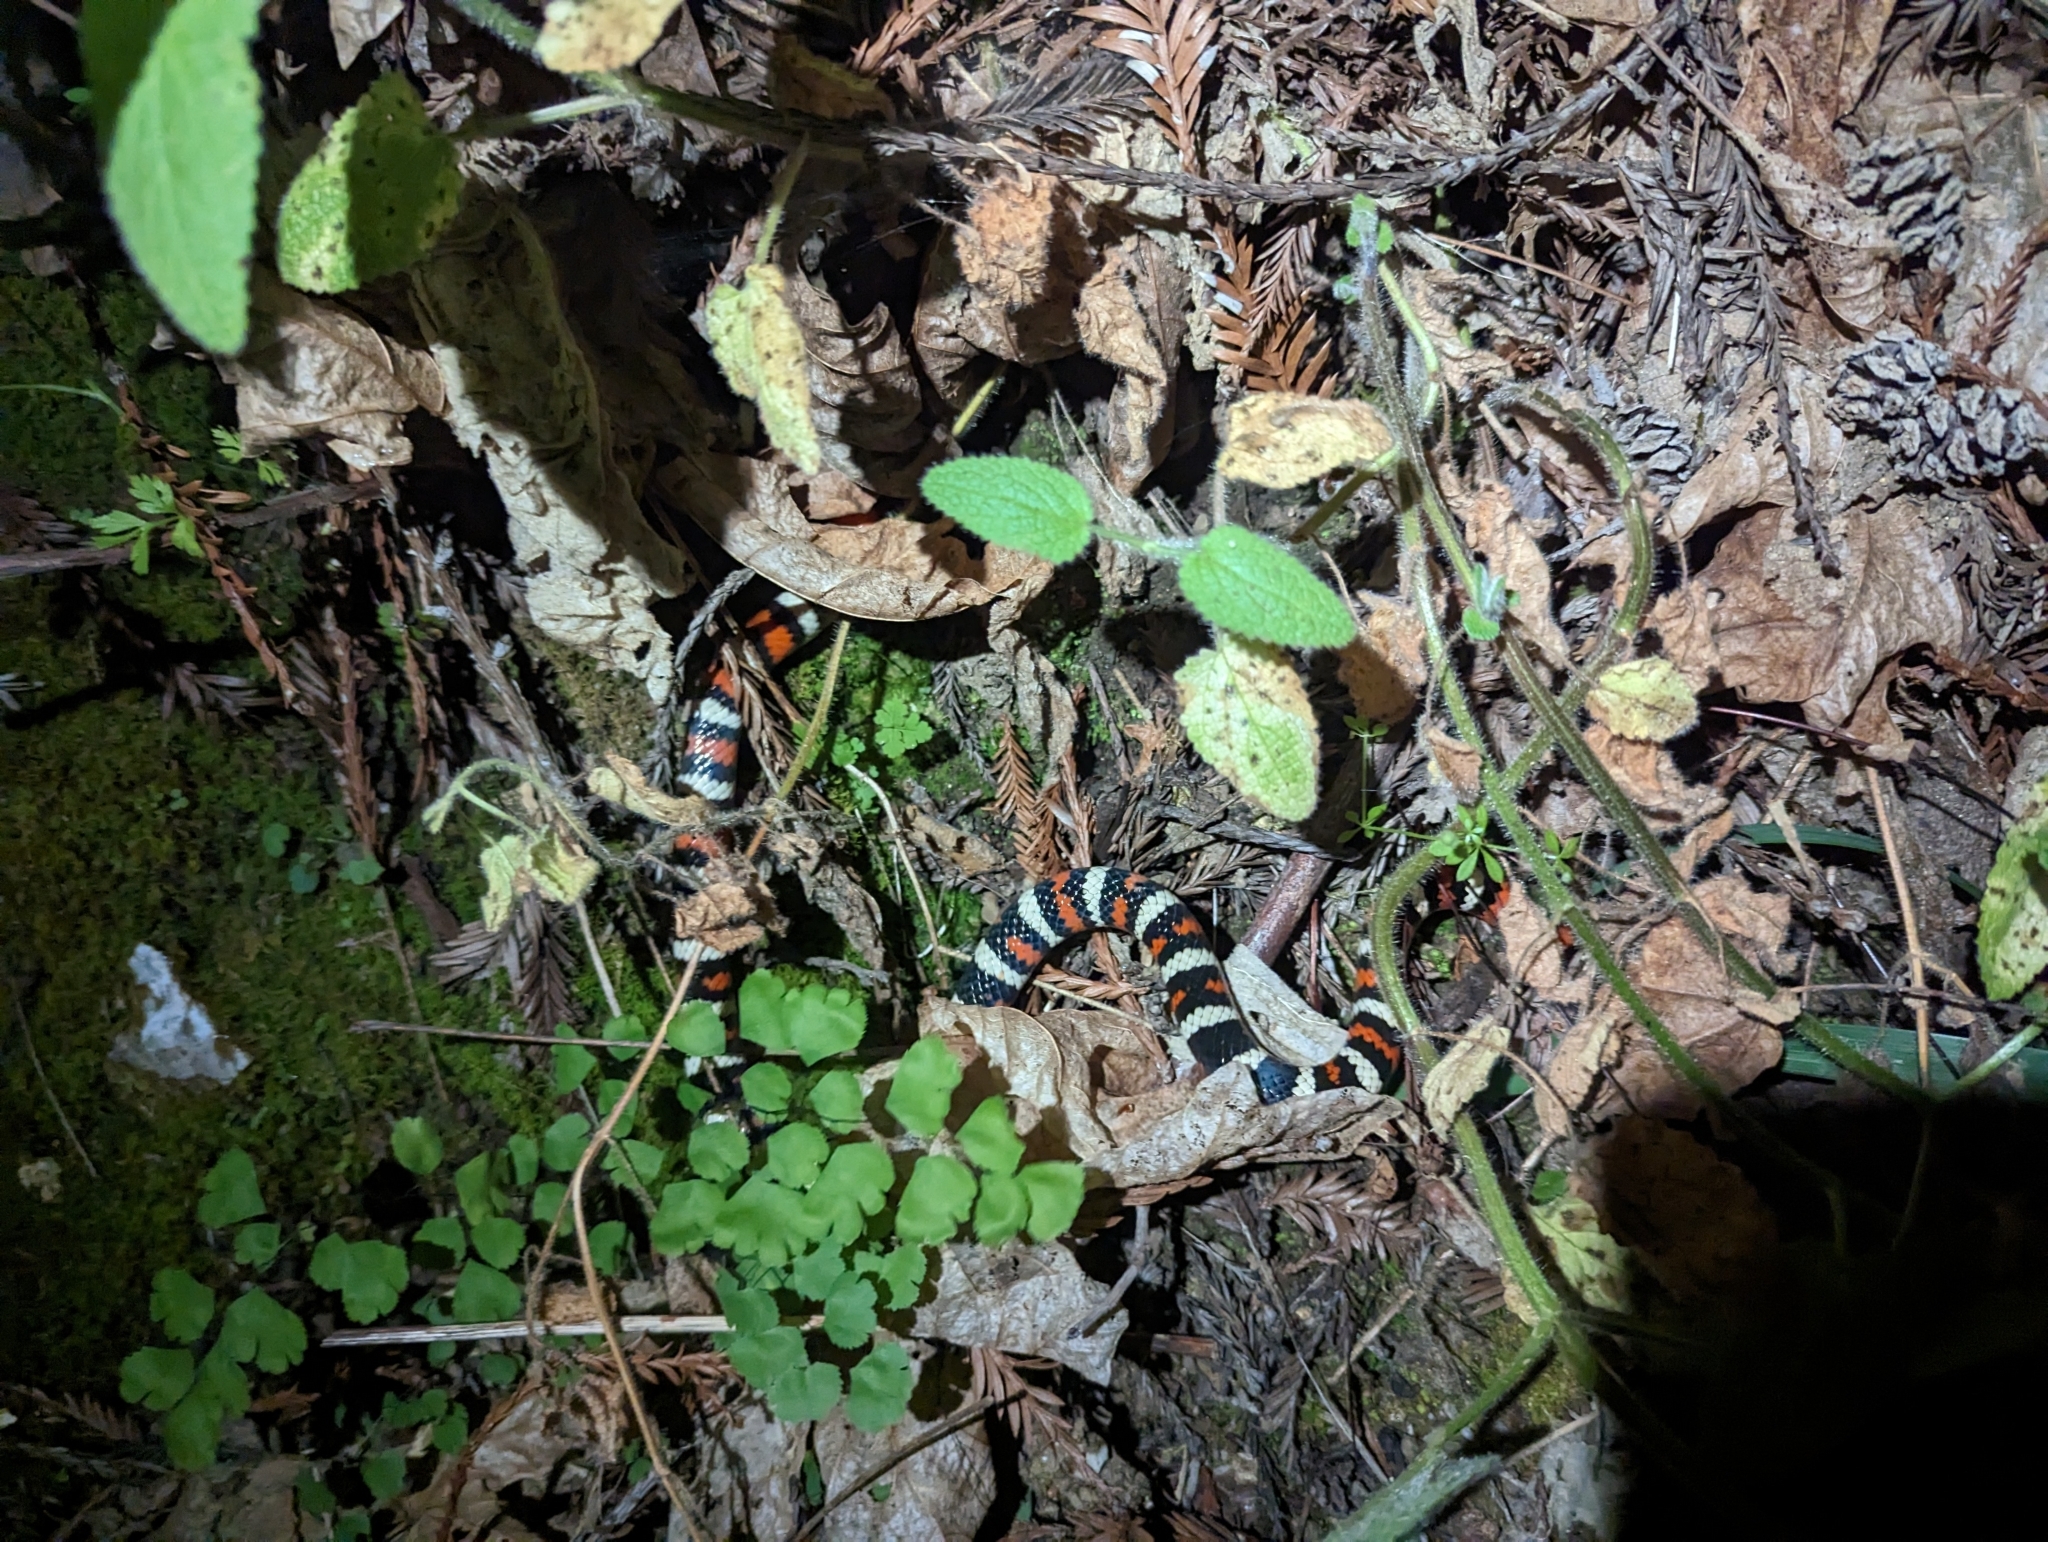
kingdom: Animalia
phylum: Chordata
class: Squamata
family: Colubridae
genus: Lampropeltis
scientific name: Lampropeltis zonata
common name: California mountain kingsnake
